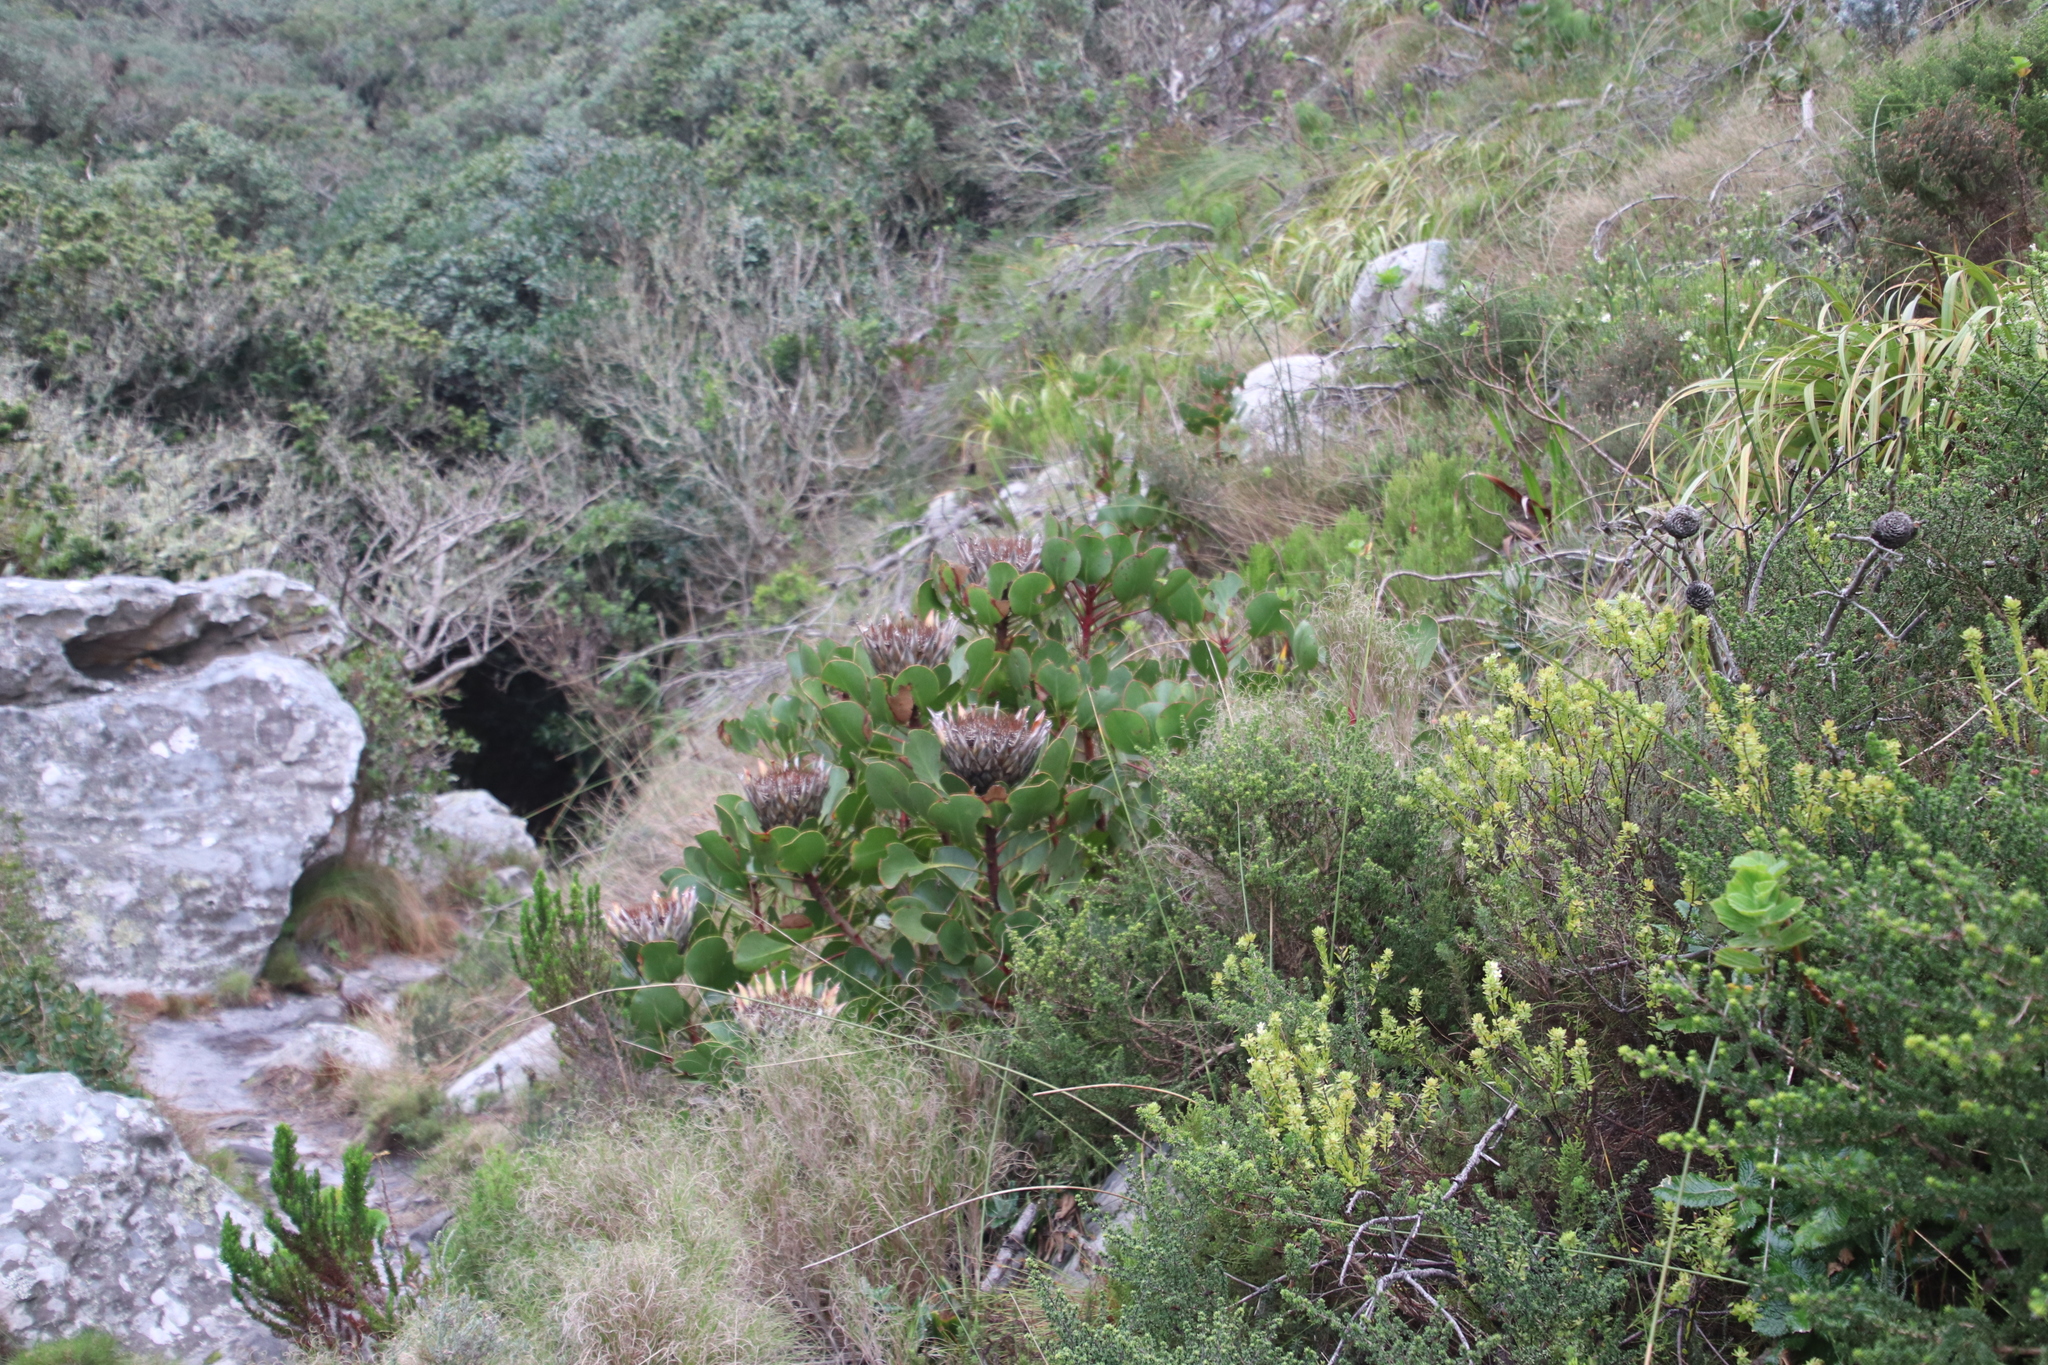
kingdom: Plantae
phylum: Tracheophyta
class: Magnoliopsida
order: Proteales
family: Proteaceae
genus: Protea
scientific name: Protea cynaroides
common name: King protea
